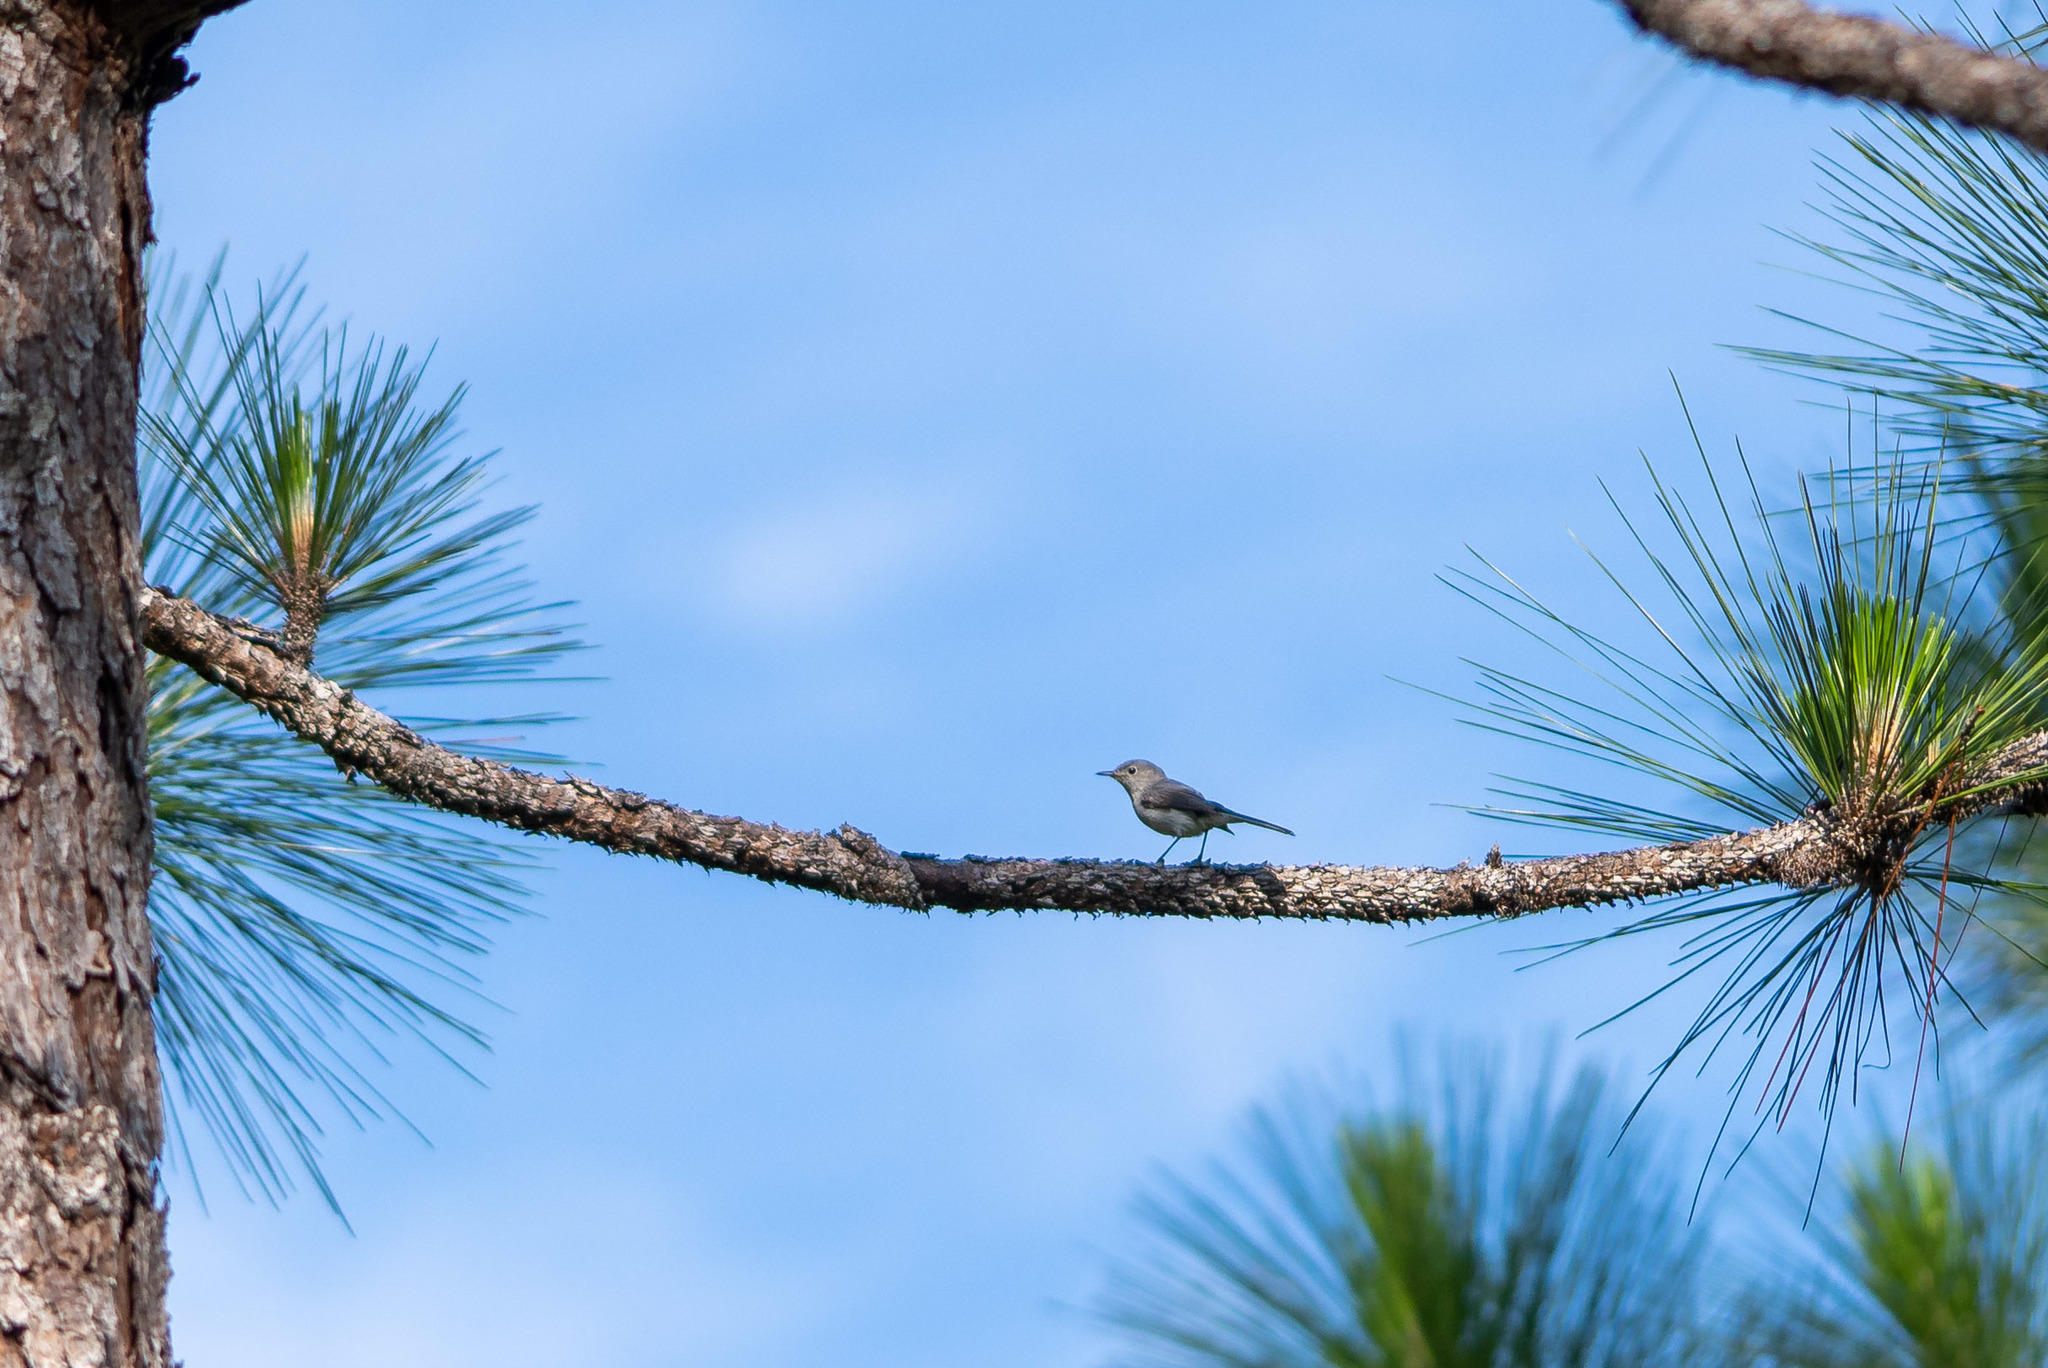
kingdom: Animalia
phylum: Chordata
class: Aves
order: Passeriformes
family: Polioptilidae
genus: Polioptila
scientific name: Polioptila caerulea
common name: Blue-gray gnatcatcher
